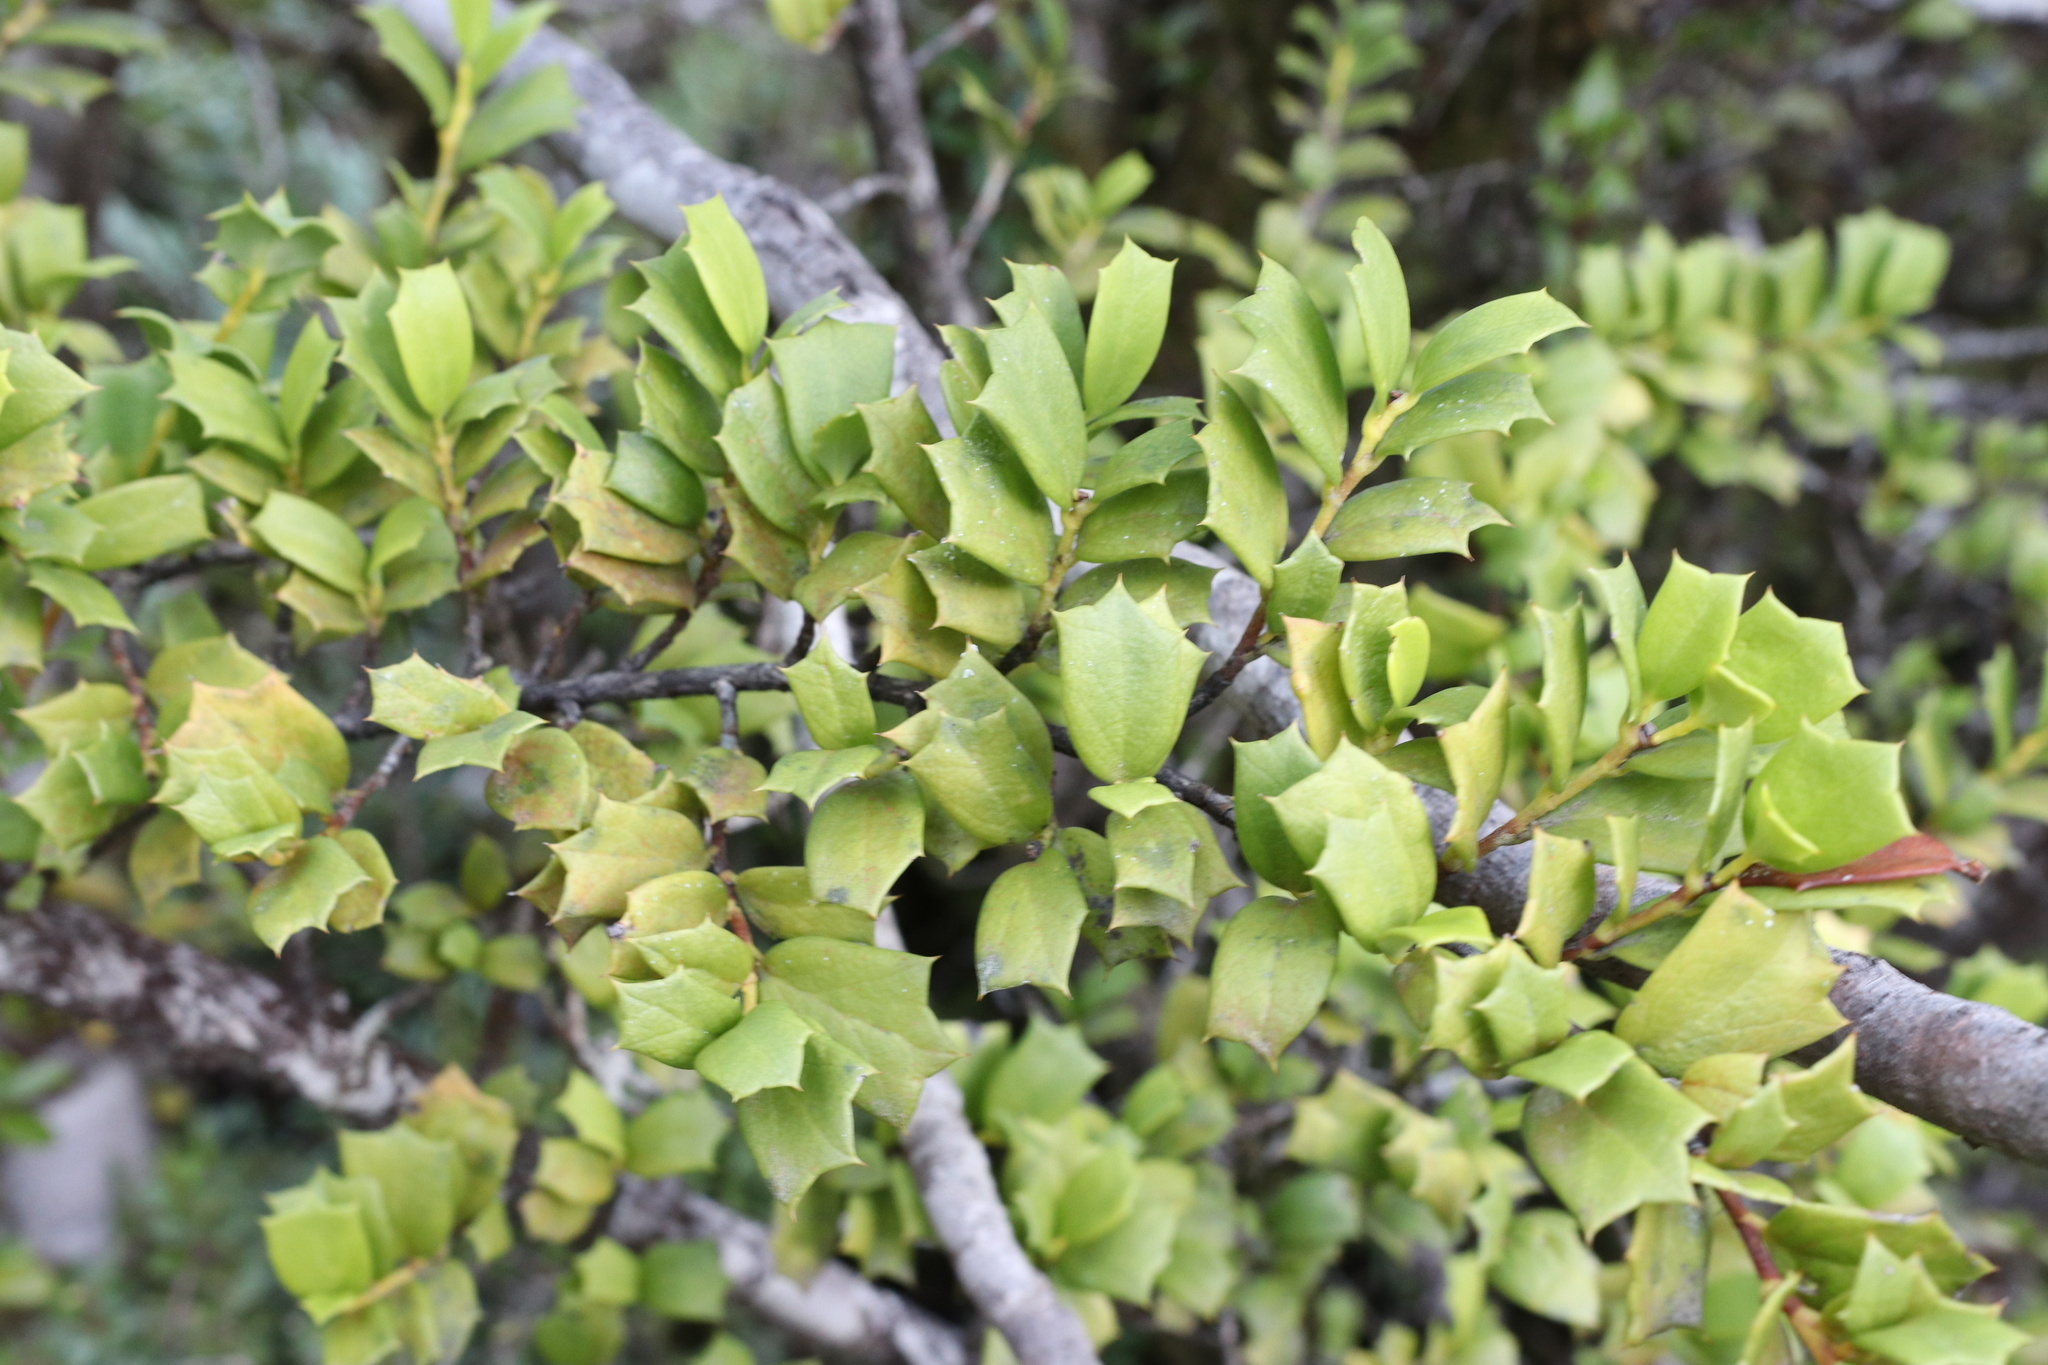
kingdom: Plantae
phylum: Tracheophyta
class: Magnoliopsida
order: Apiales
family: Griseliniaceae
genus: Griselinia
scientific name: Griselinia jodinifolia
